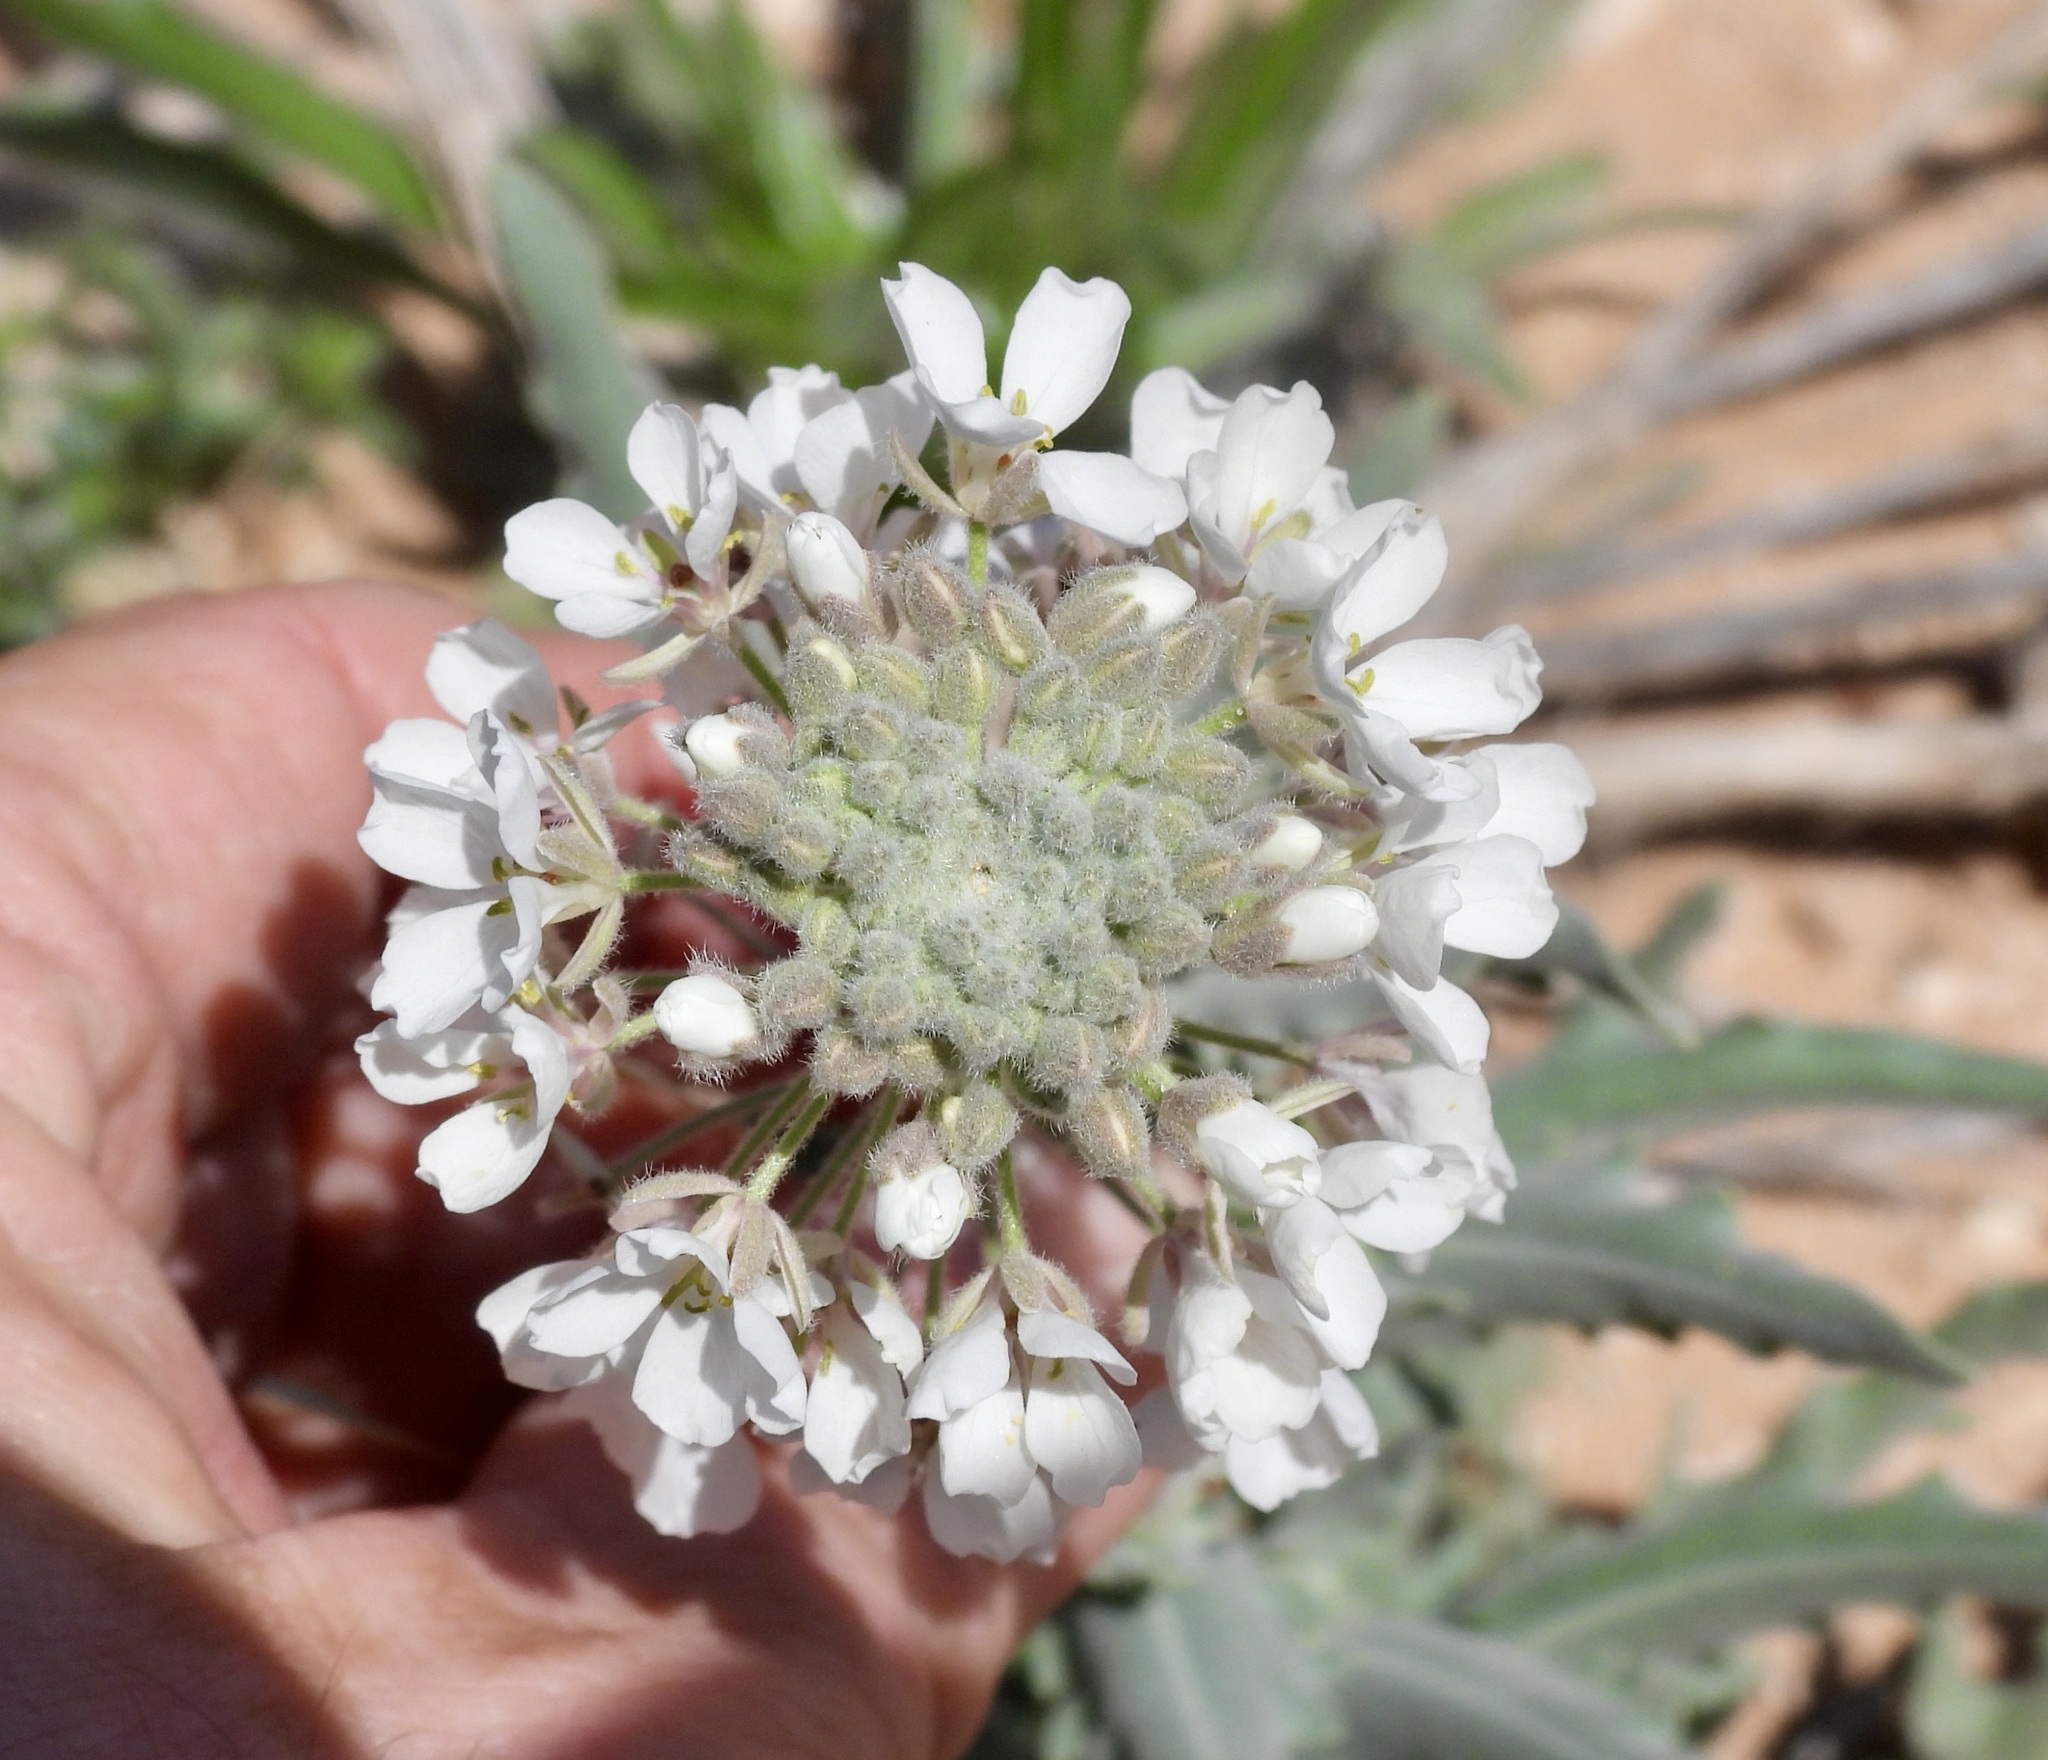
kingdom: Plantae
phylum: Tracheophyta
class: Magnoliopsida
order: Brassicales
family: Brassicaceae
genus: Dimorphocarpa
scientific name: Dimorphocarpa wislizenii
